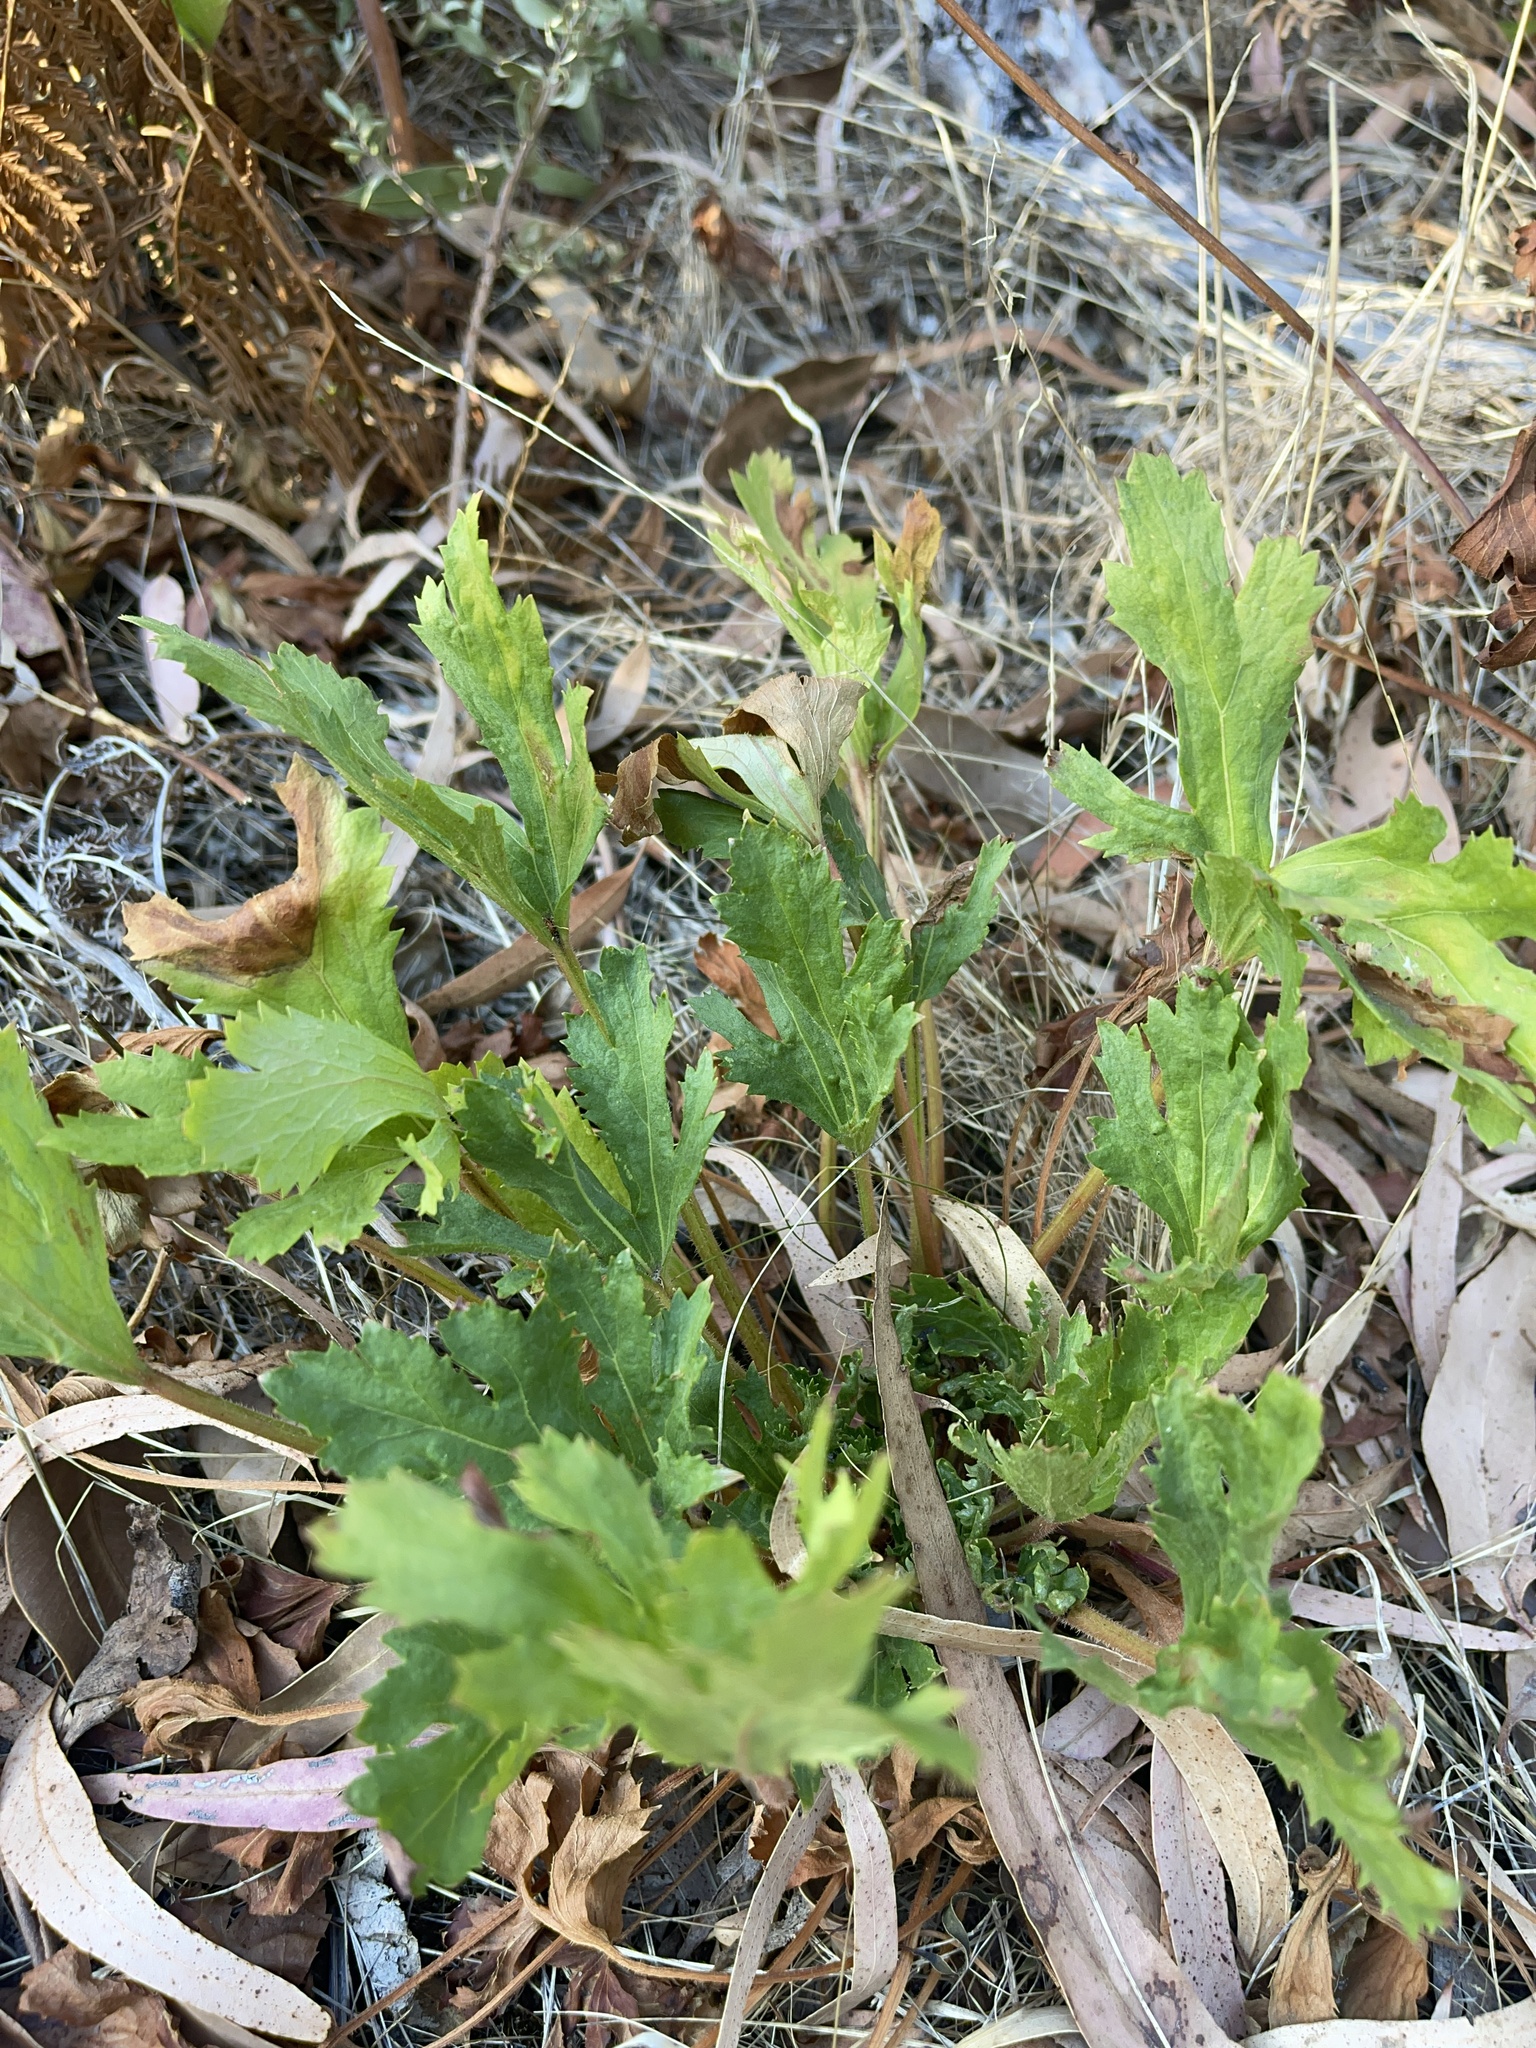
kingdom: Plantae
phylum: Tracheophyta
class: Magnoliopsida
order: Apiales
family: Araliaceae
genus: Trachymene
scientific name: Trachymene composita
